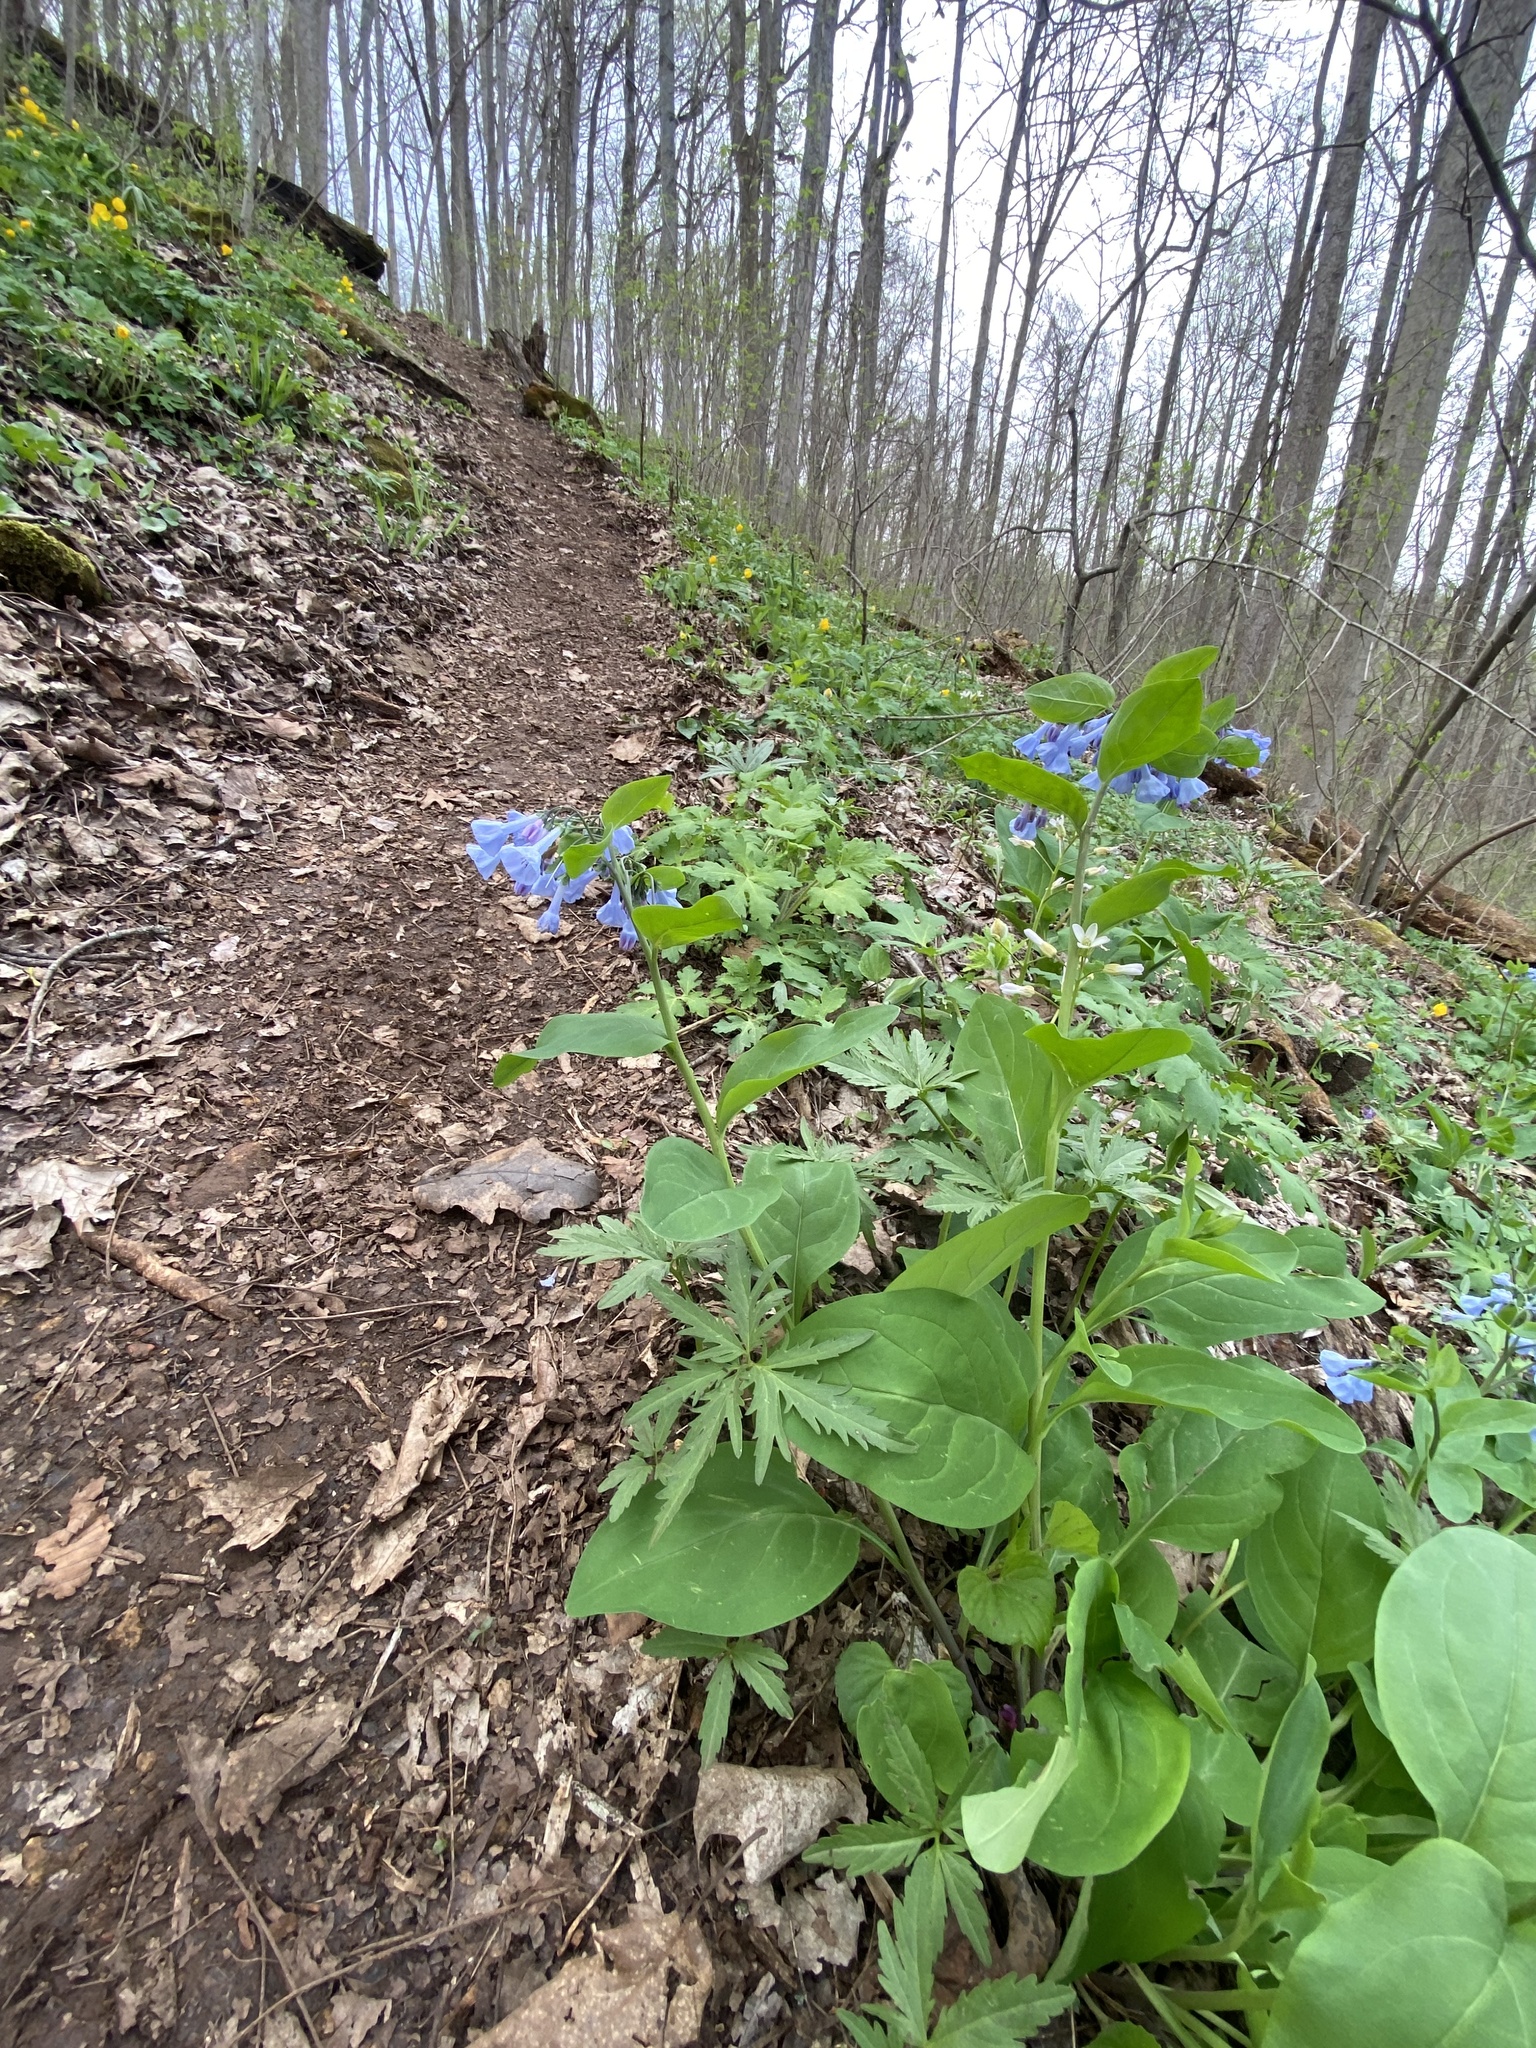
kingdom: Plantae
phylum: Tracheophyta
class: Magnoliopsida
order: Boraginales
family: Boraginaceae
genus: Mertensia
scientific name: Mertensia virginica
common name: Virginia bluebells
